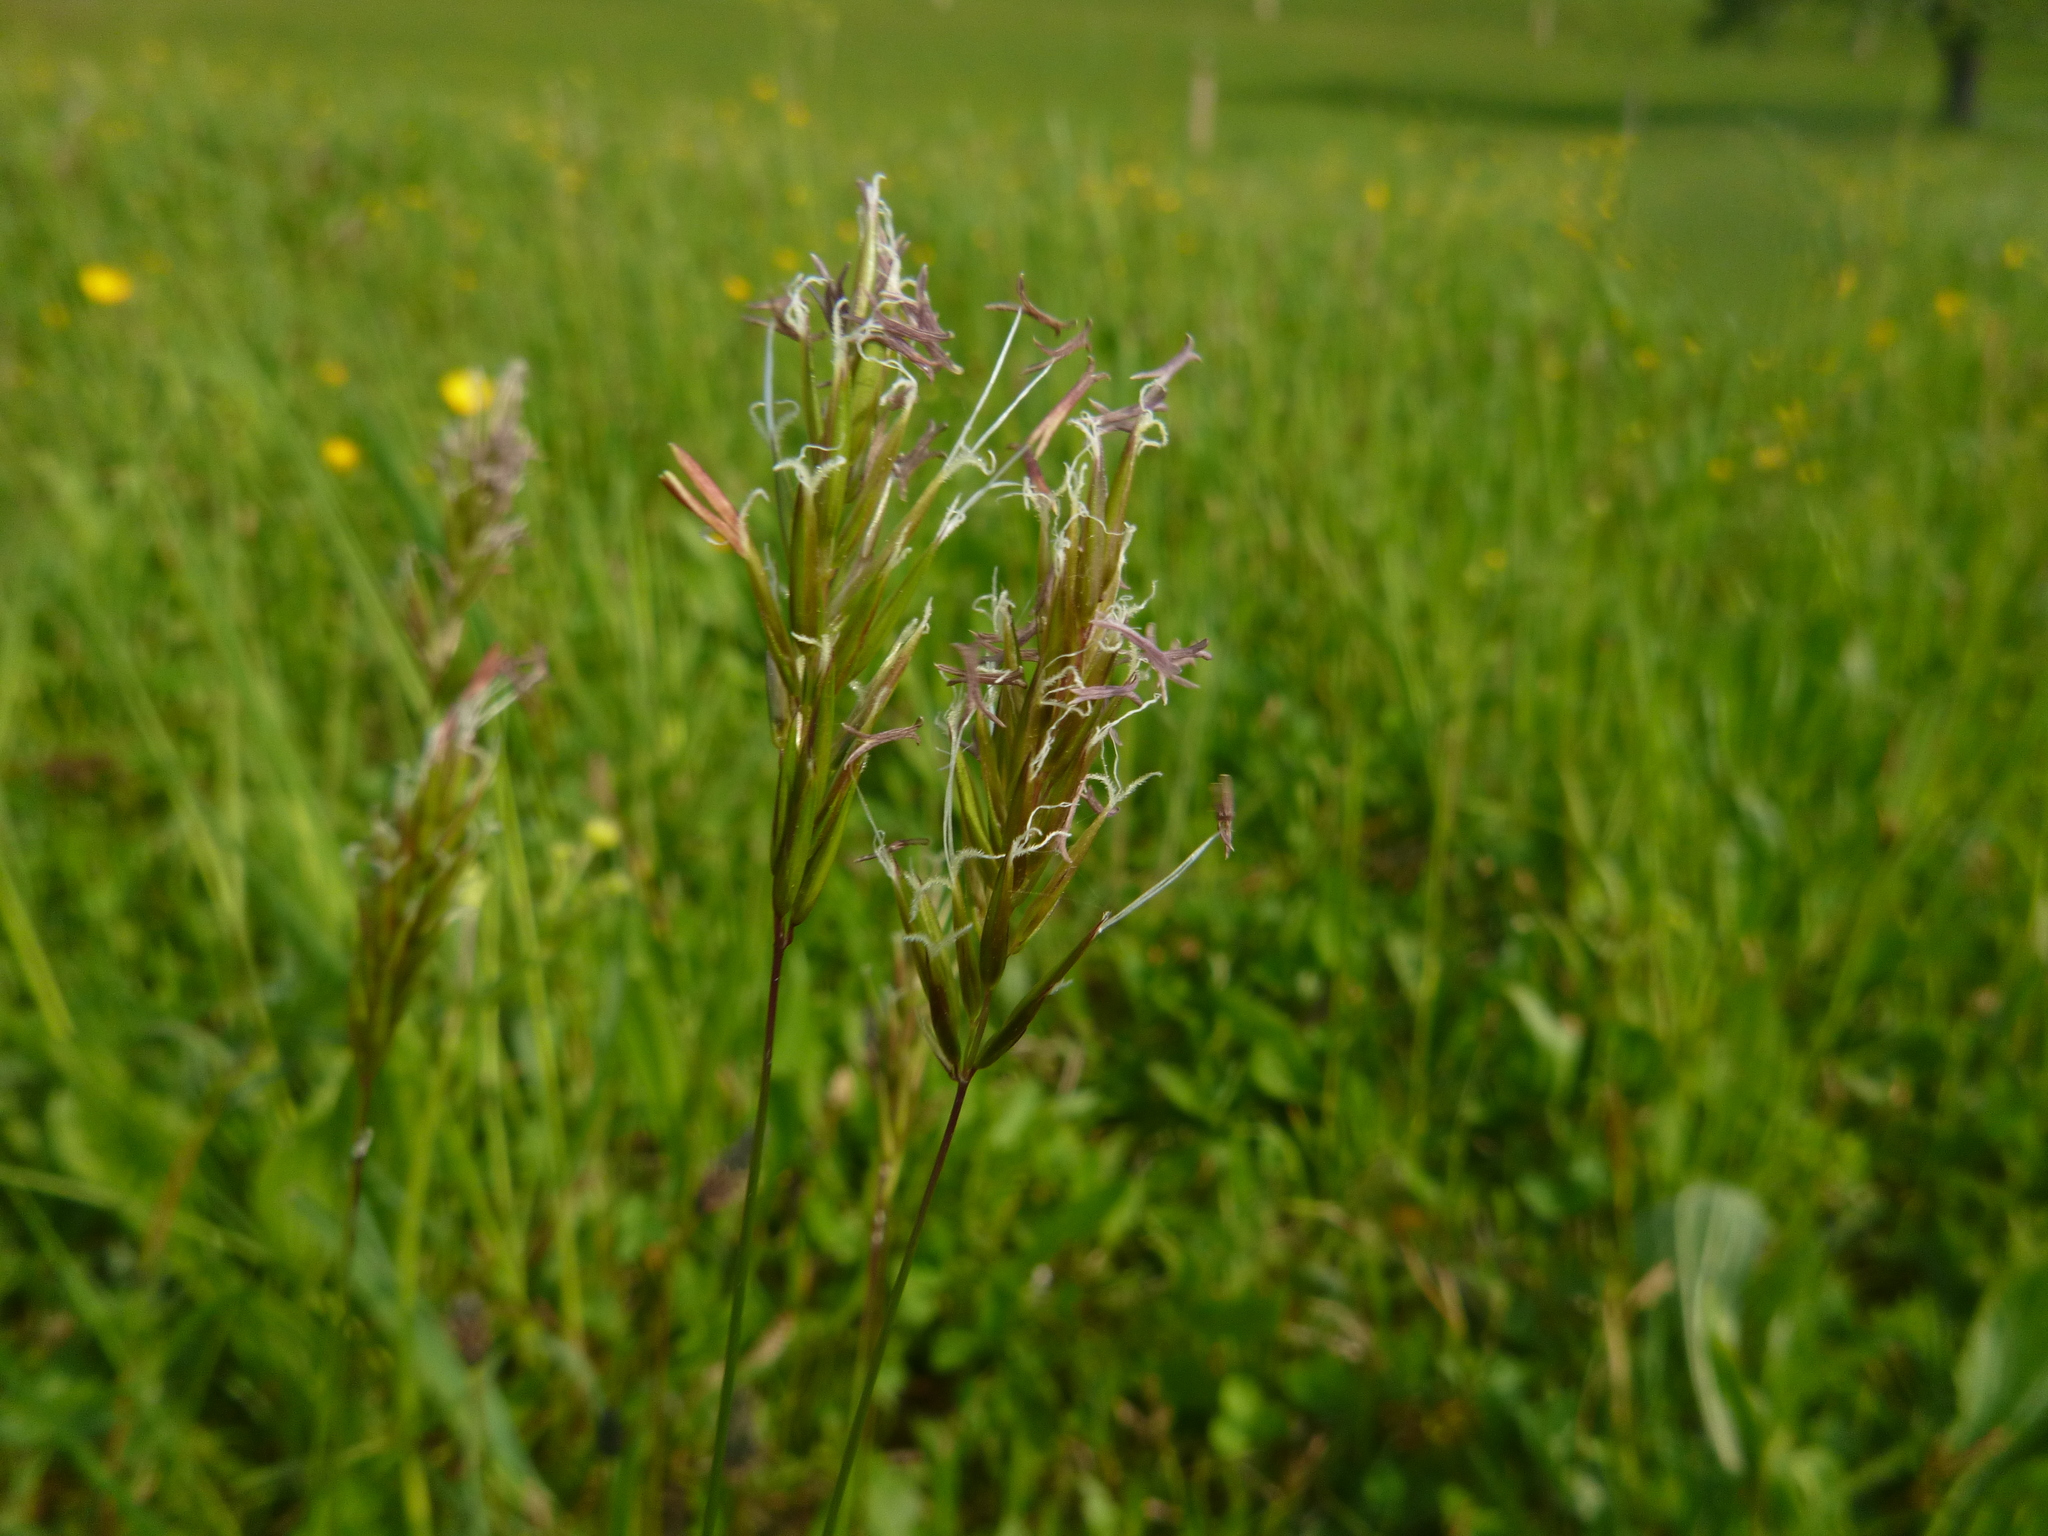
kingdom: Plantae
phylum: Tracheophyta
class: Liliopsida
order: Poales
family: Poaceae
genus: Anthoxanthum
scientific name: Anthoxanthum odoratum
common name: Sweet vernalgrass
